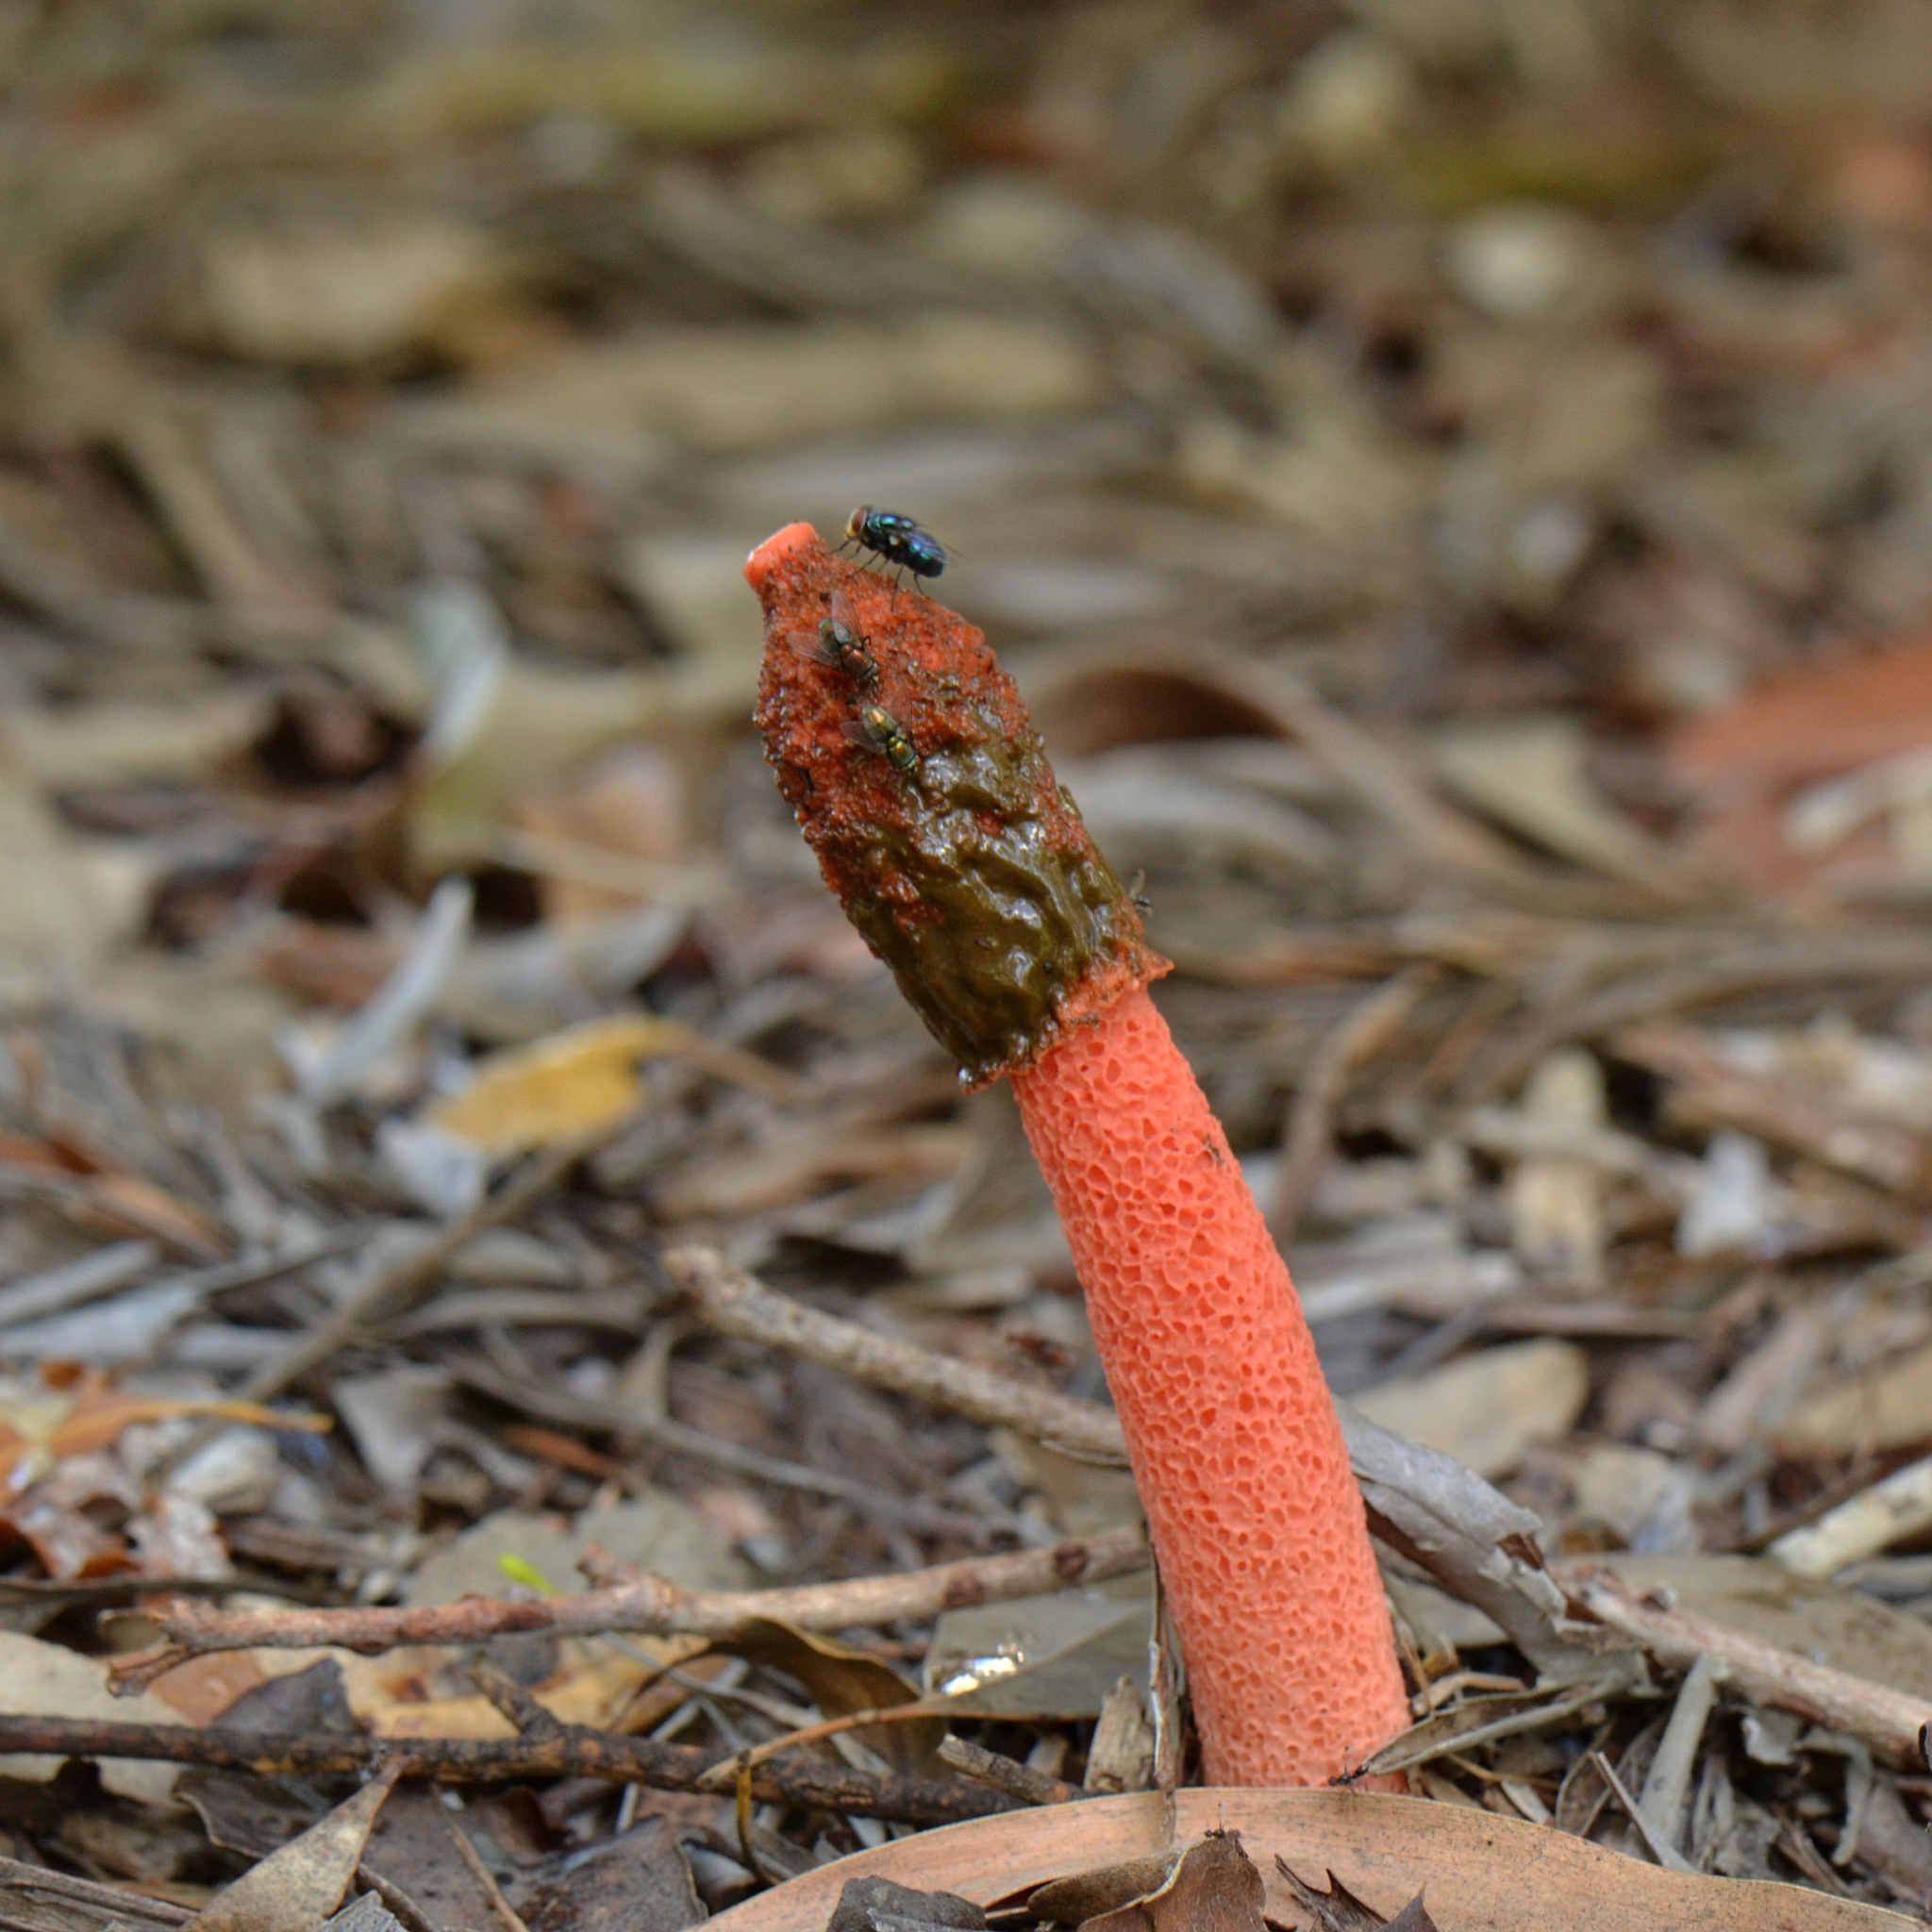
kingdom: Fungi
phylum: Basidiomycota
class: Agaricomycetes
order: Phallales
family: Phallaceae
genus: Phallus
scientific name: Phallus rubicundus
